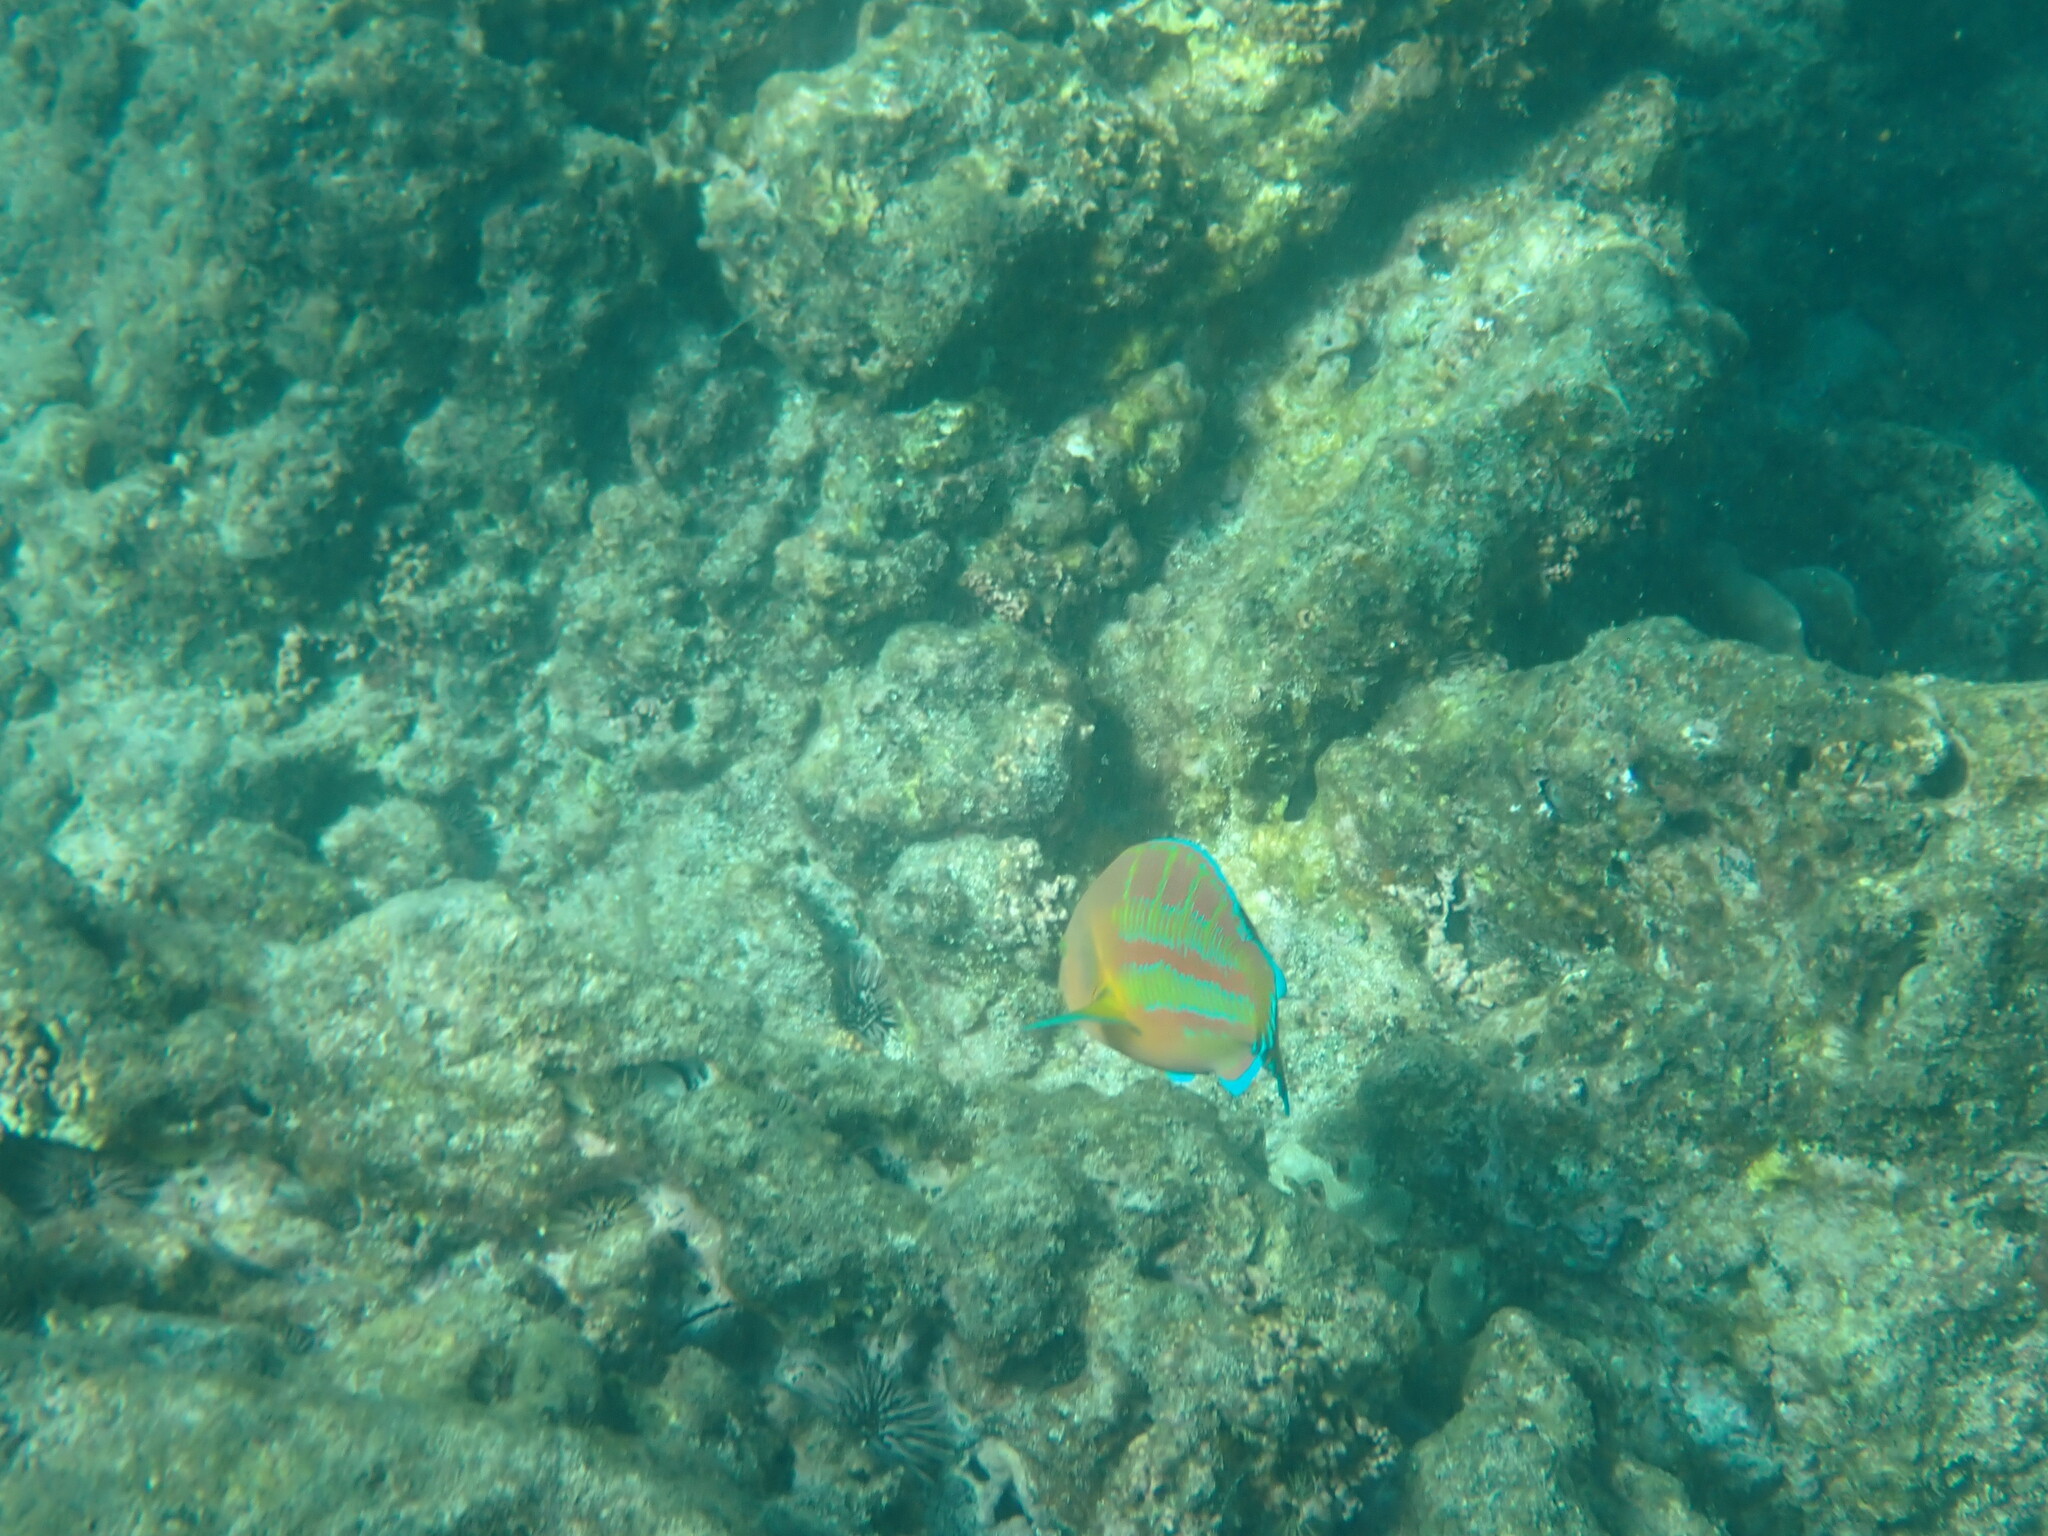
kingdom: Animalia
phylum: Chordata
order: Perciformes
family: Labridae
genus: Thalassoma
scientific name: Thalassoma trilobatum
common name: Christmas wrasse
